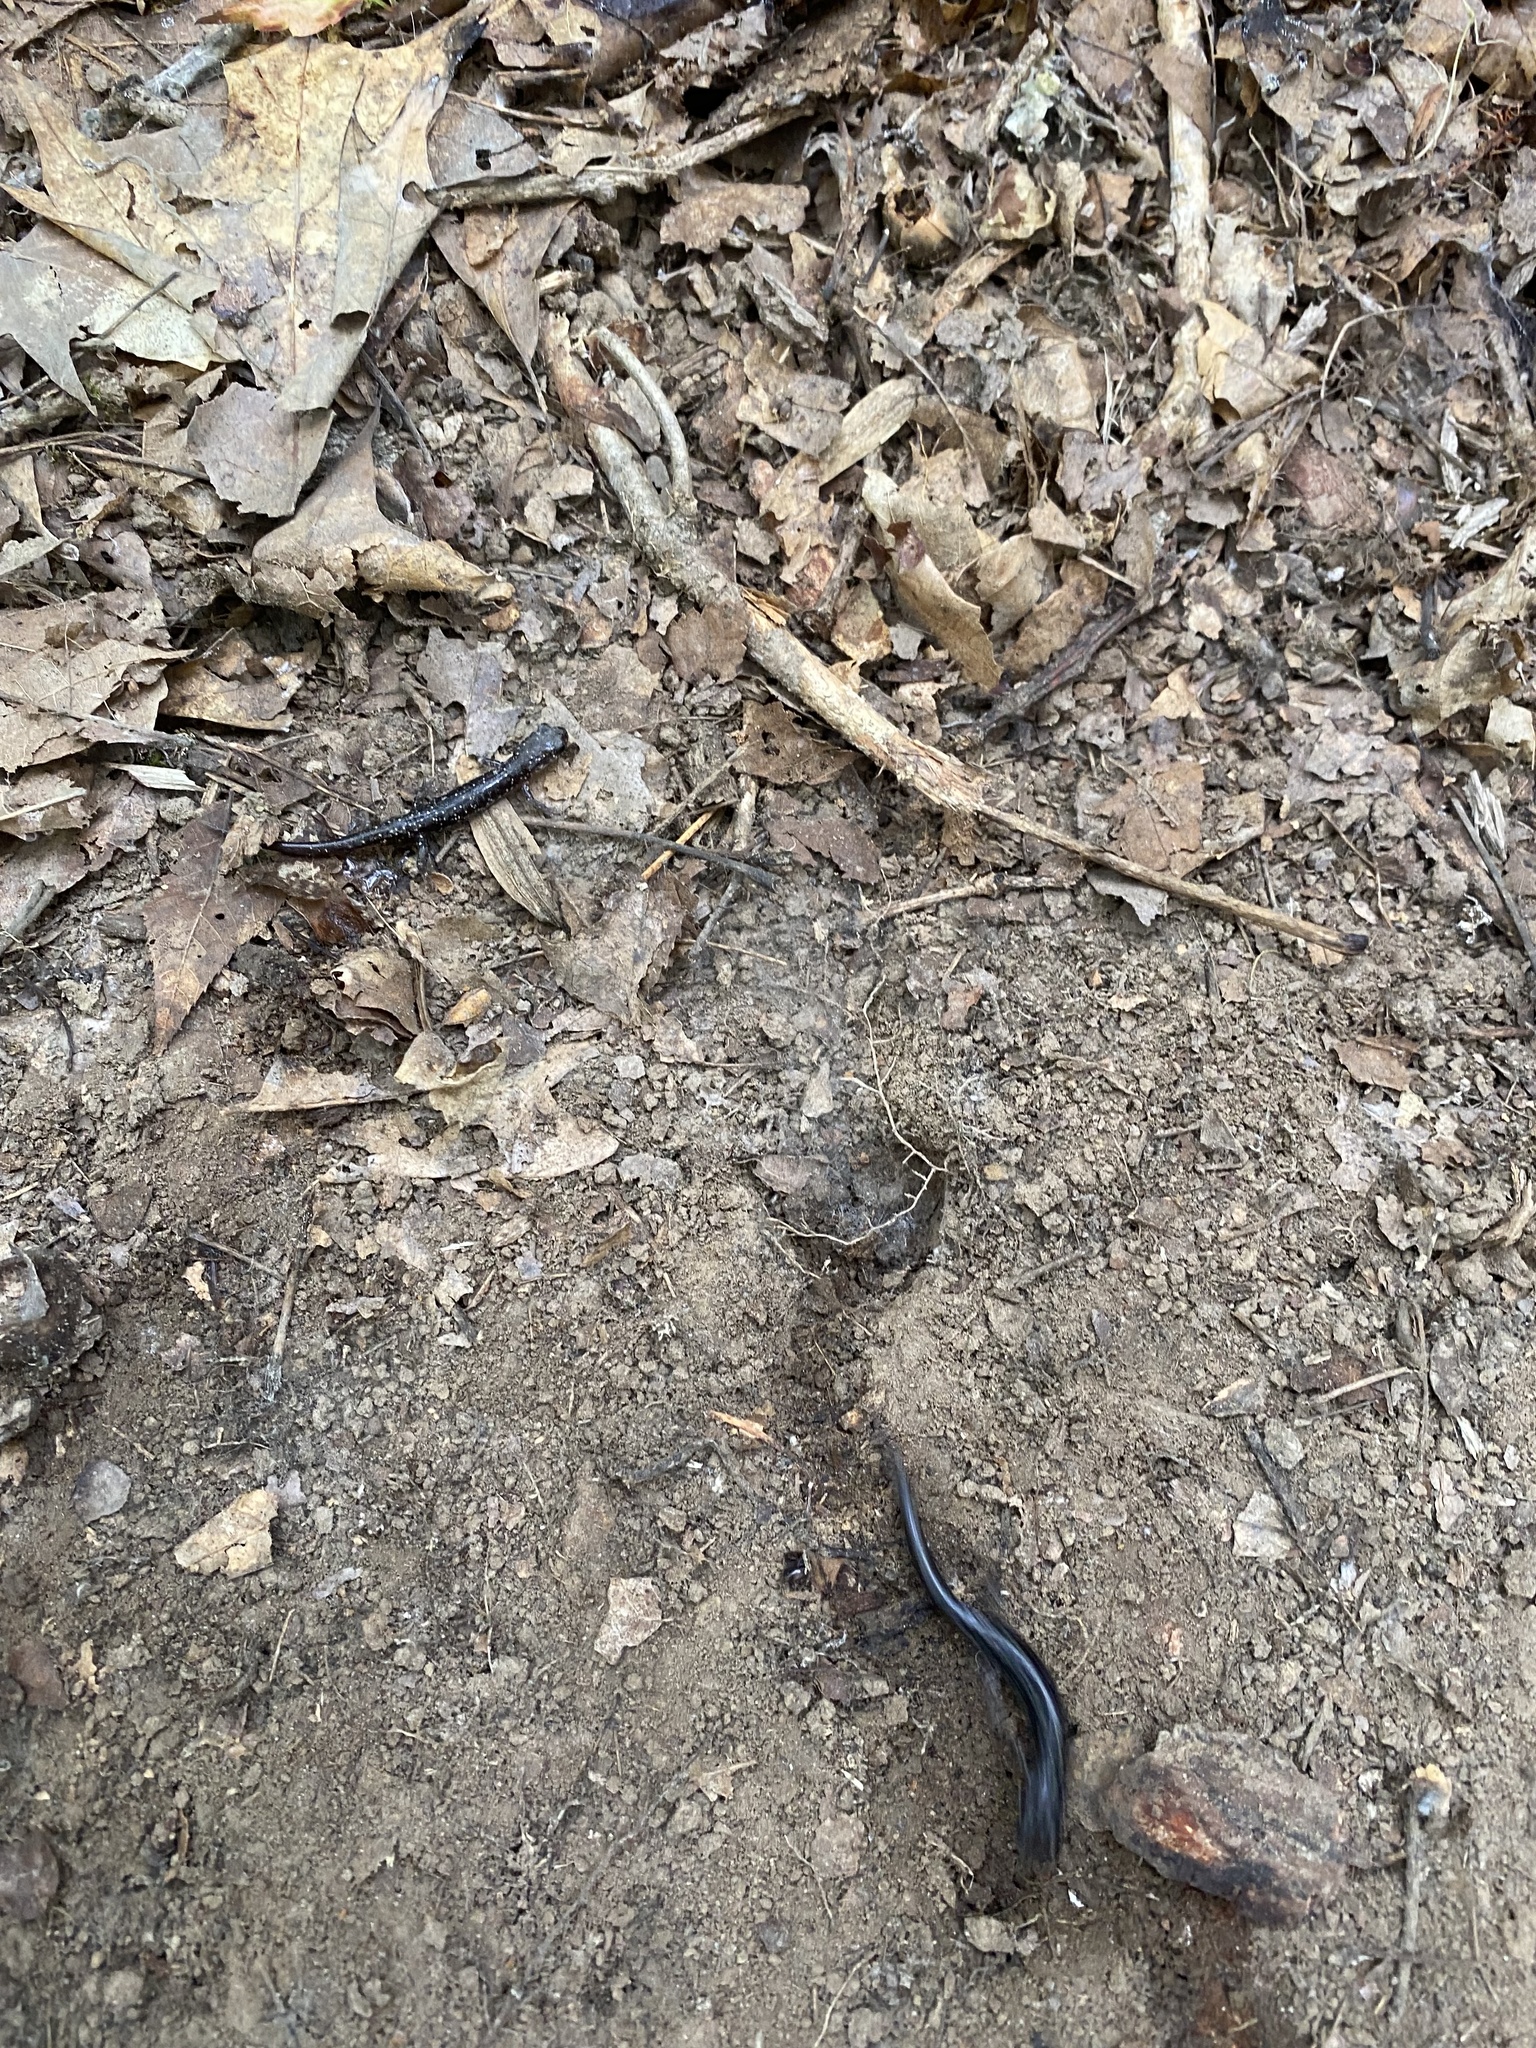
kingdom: Animalia
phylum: Chordata
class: Amphibia
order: Caudata
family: Plethodontidae
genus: Plethodon
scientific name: Plethodon glutinosus
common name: Northern slimy salamander
